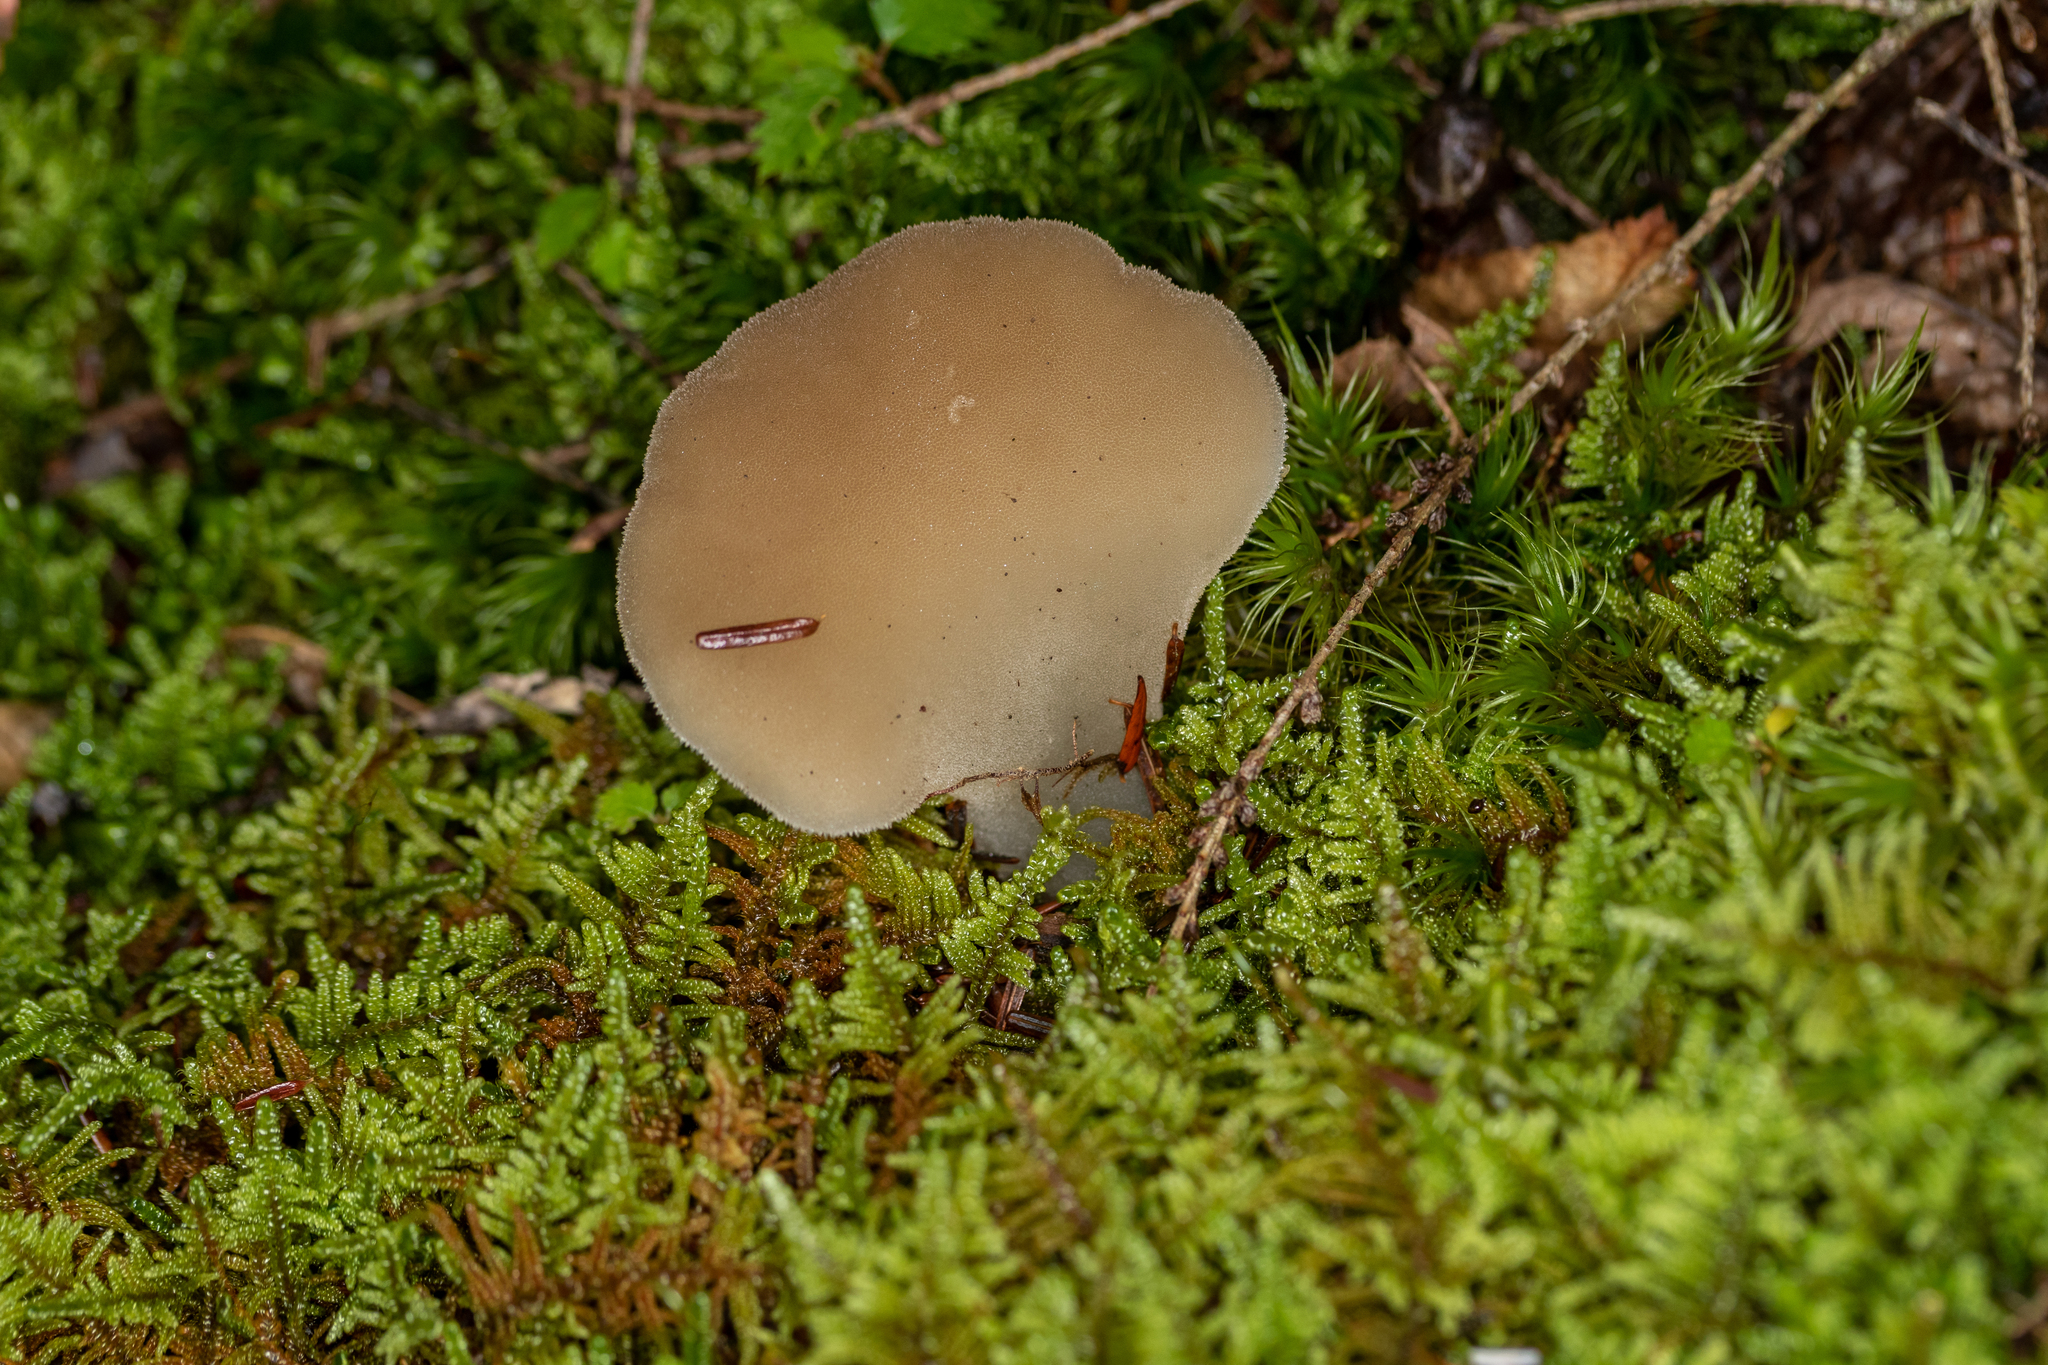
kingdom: Fungi
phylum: Basidiomycota
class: Agaricomycetes
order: Auriculariales
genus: Pseudohydnum
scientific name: Pseudohydnum gelatinosum
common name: Jelly tongue
